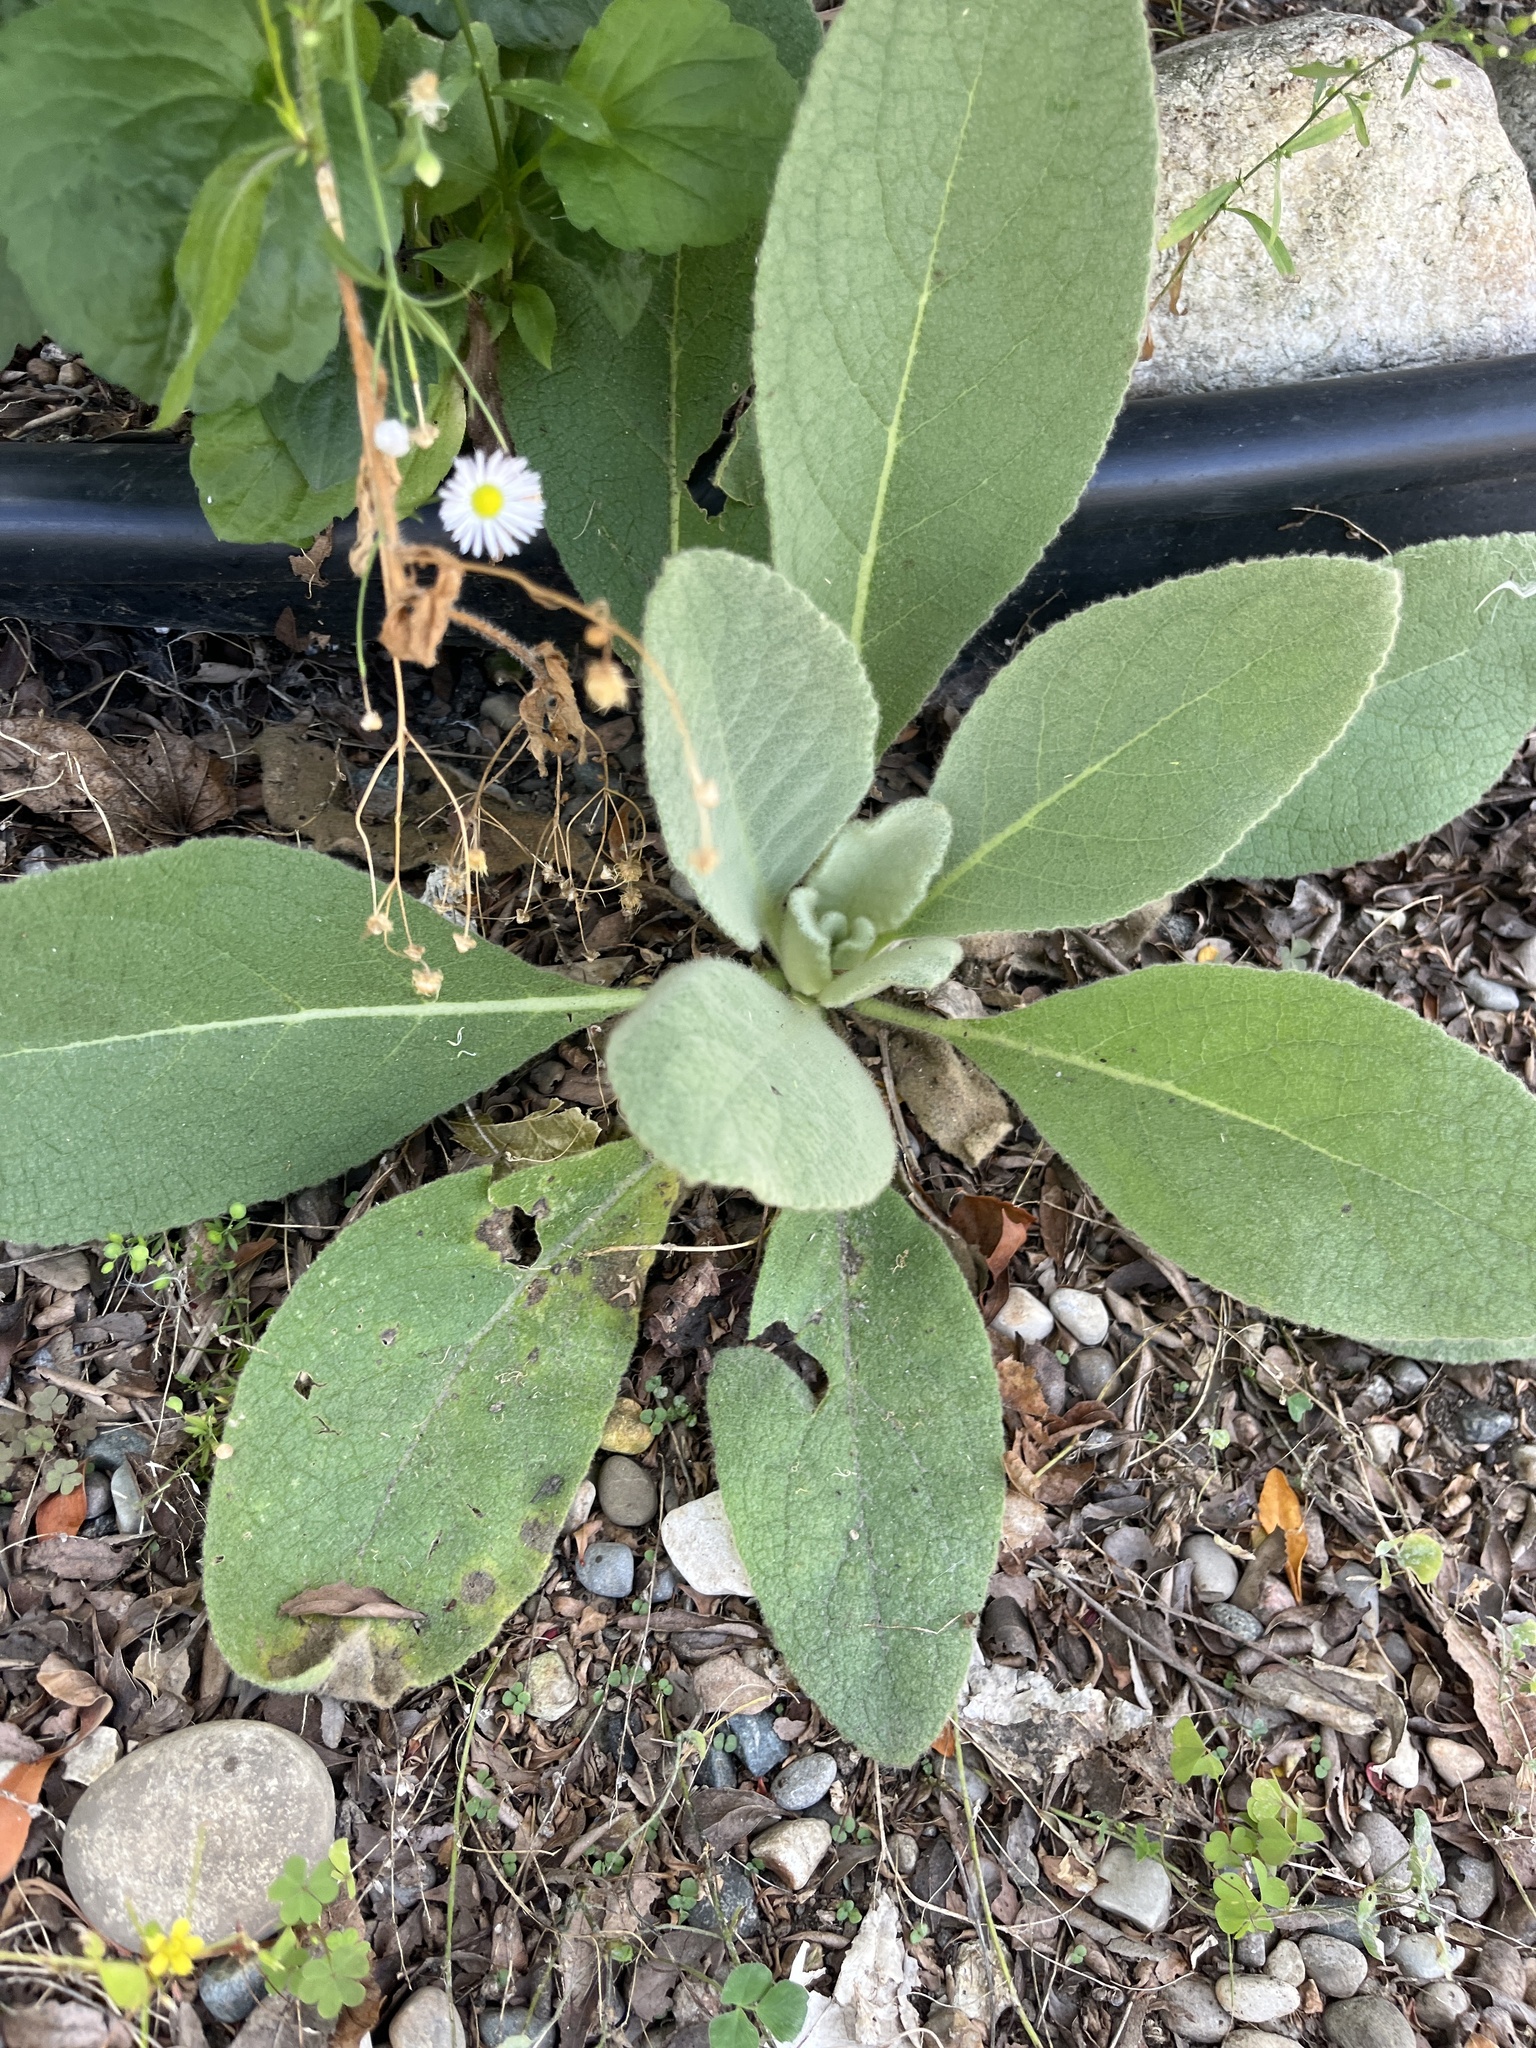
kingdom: Plantae
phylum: Tracheophyta
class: Magnoliopsida
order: Lamiales
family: Scrophulariaceae
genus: Verbascum
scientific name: Verbascum thapsus
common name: Common mullein
